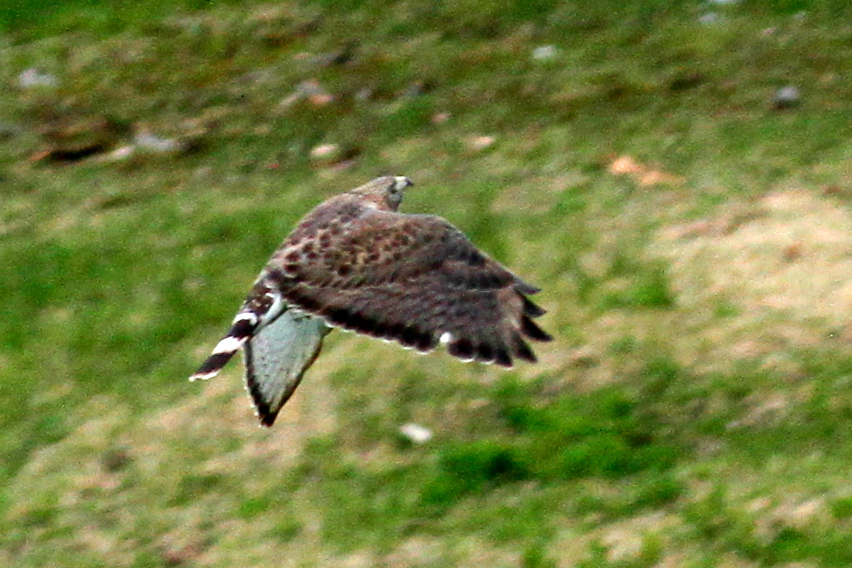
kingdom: Animalia
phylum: Chordata
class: Aves
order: Accipitriformes
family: Accipitridae
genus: Buteo
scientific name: Buteo platypterus
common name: Broad-winged hawk
